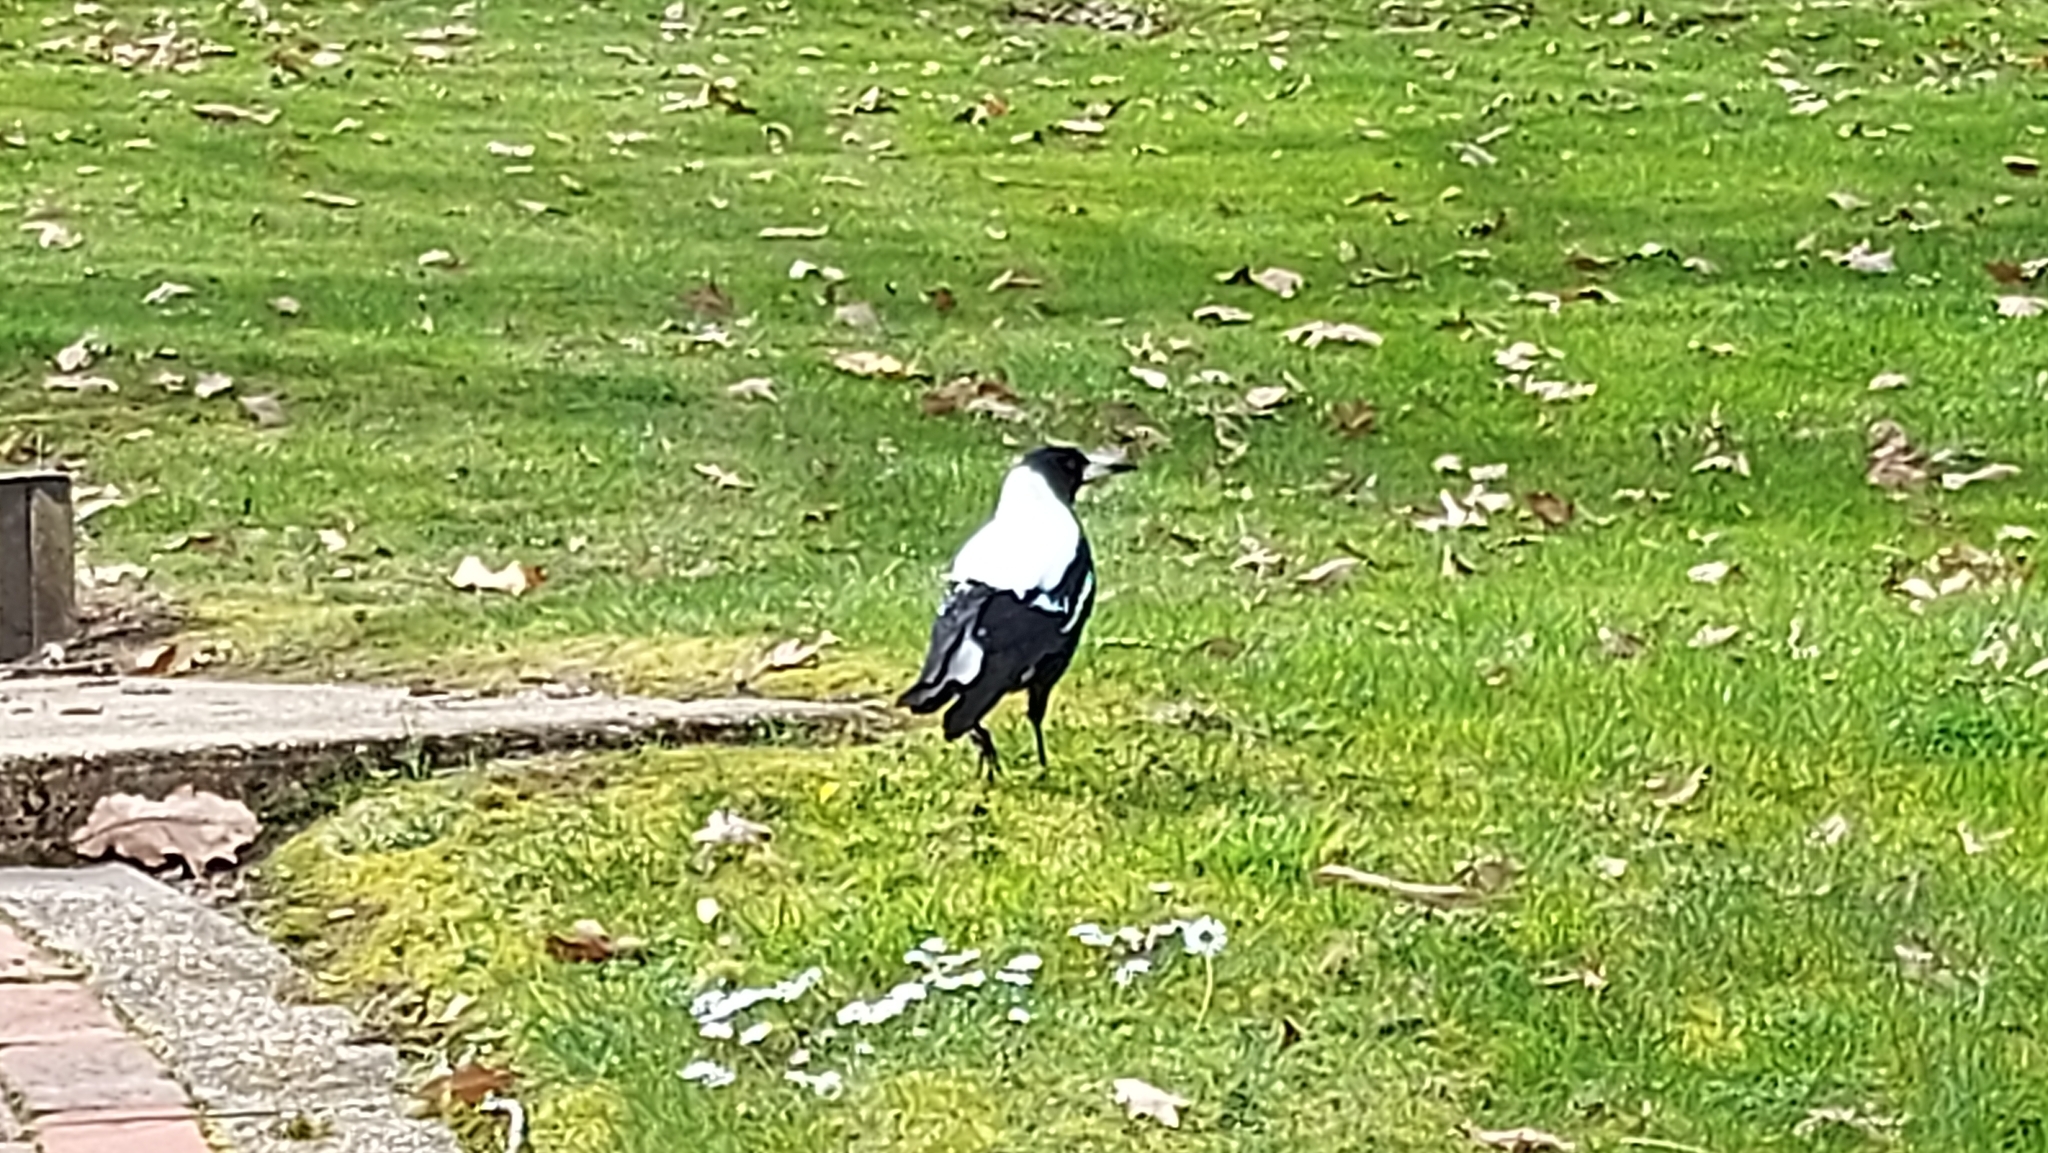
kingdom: Animalia
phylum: Chordata
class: Aves
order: Passeriformes
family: Cracticidae
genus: Gymnorhina
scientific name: Gymnorhina tibicen
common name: Australian magpie
